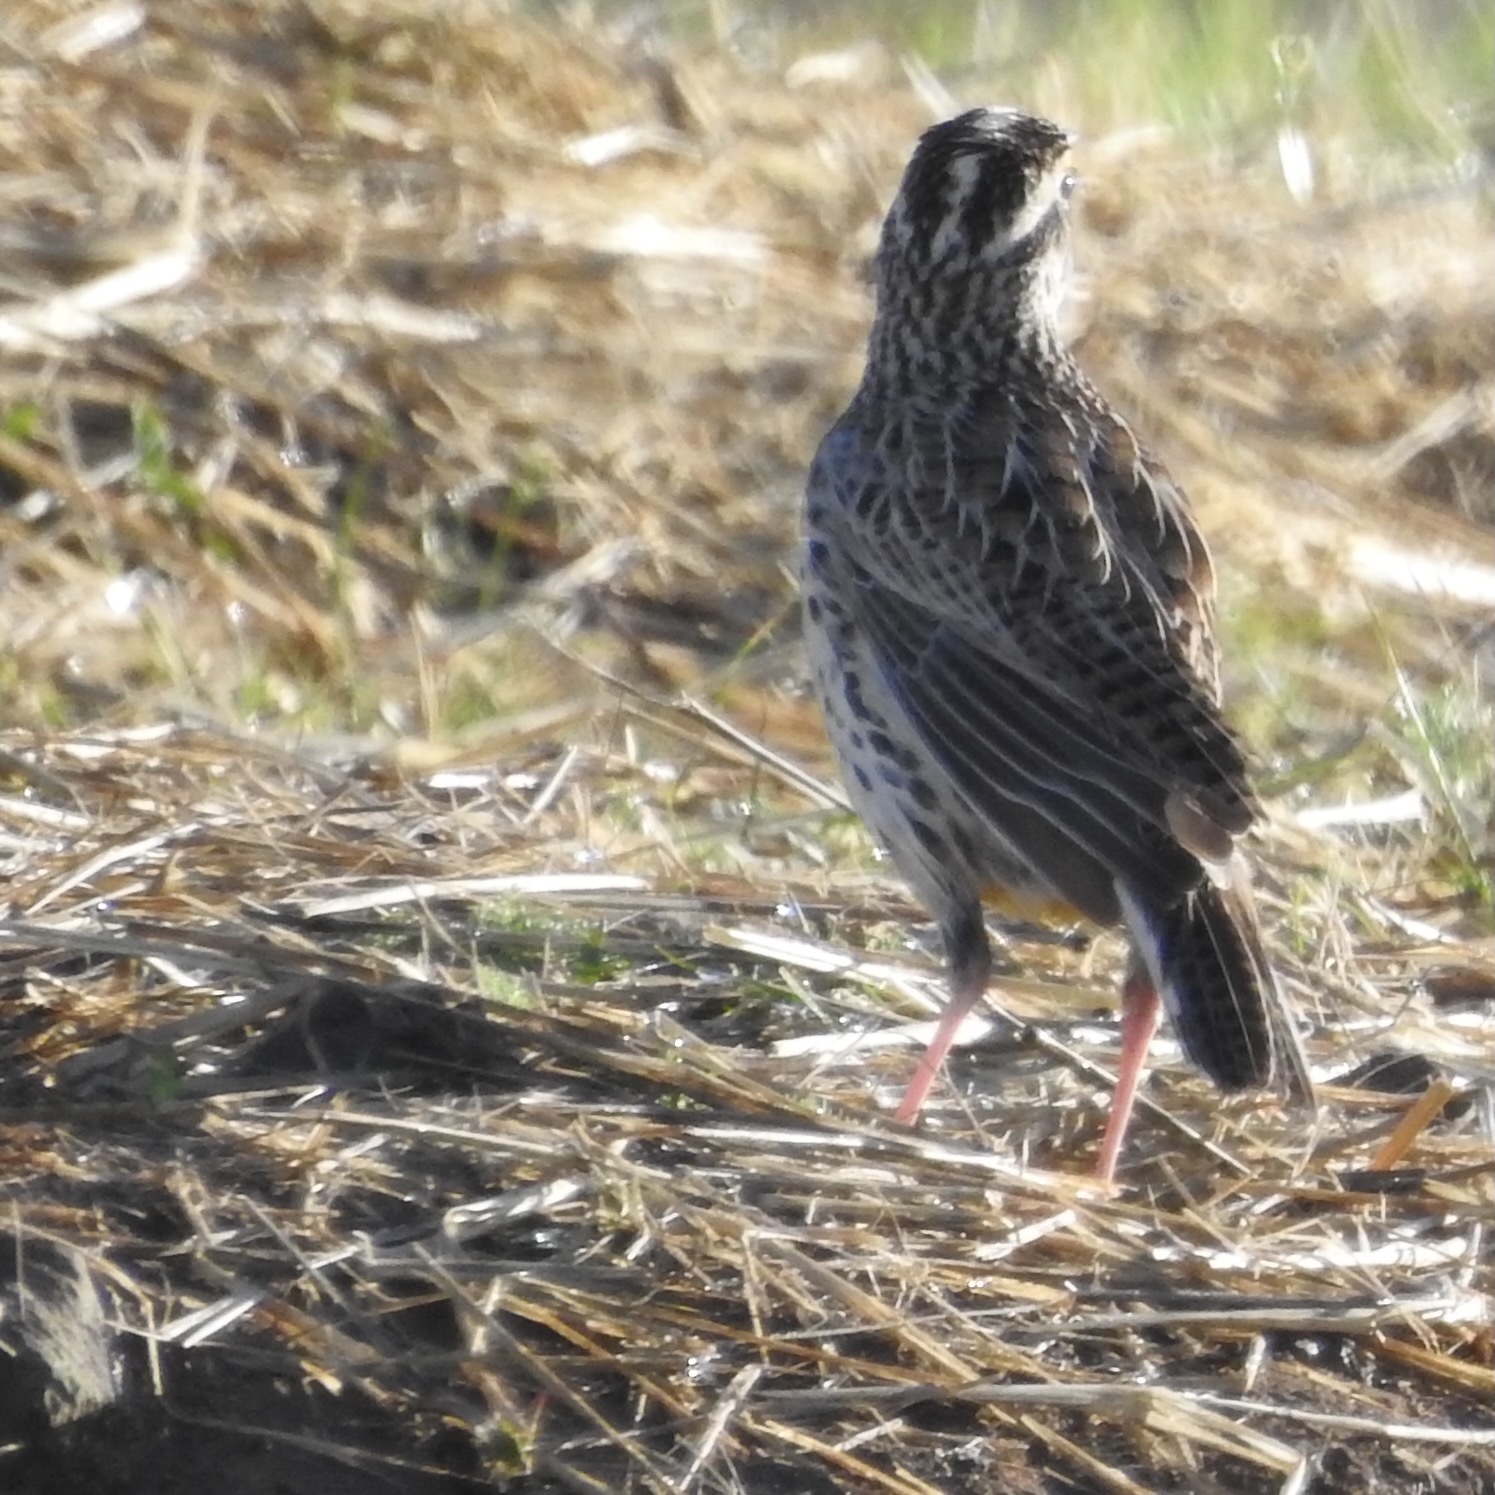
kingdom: Animalia
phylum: Chordata
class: Aves
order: Passeriformes
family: Icteridae
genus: Sturnella
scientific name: Sturnella neglecta
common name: Western meadowlark
